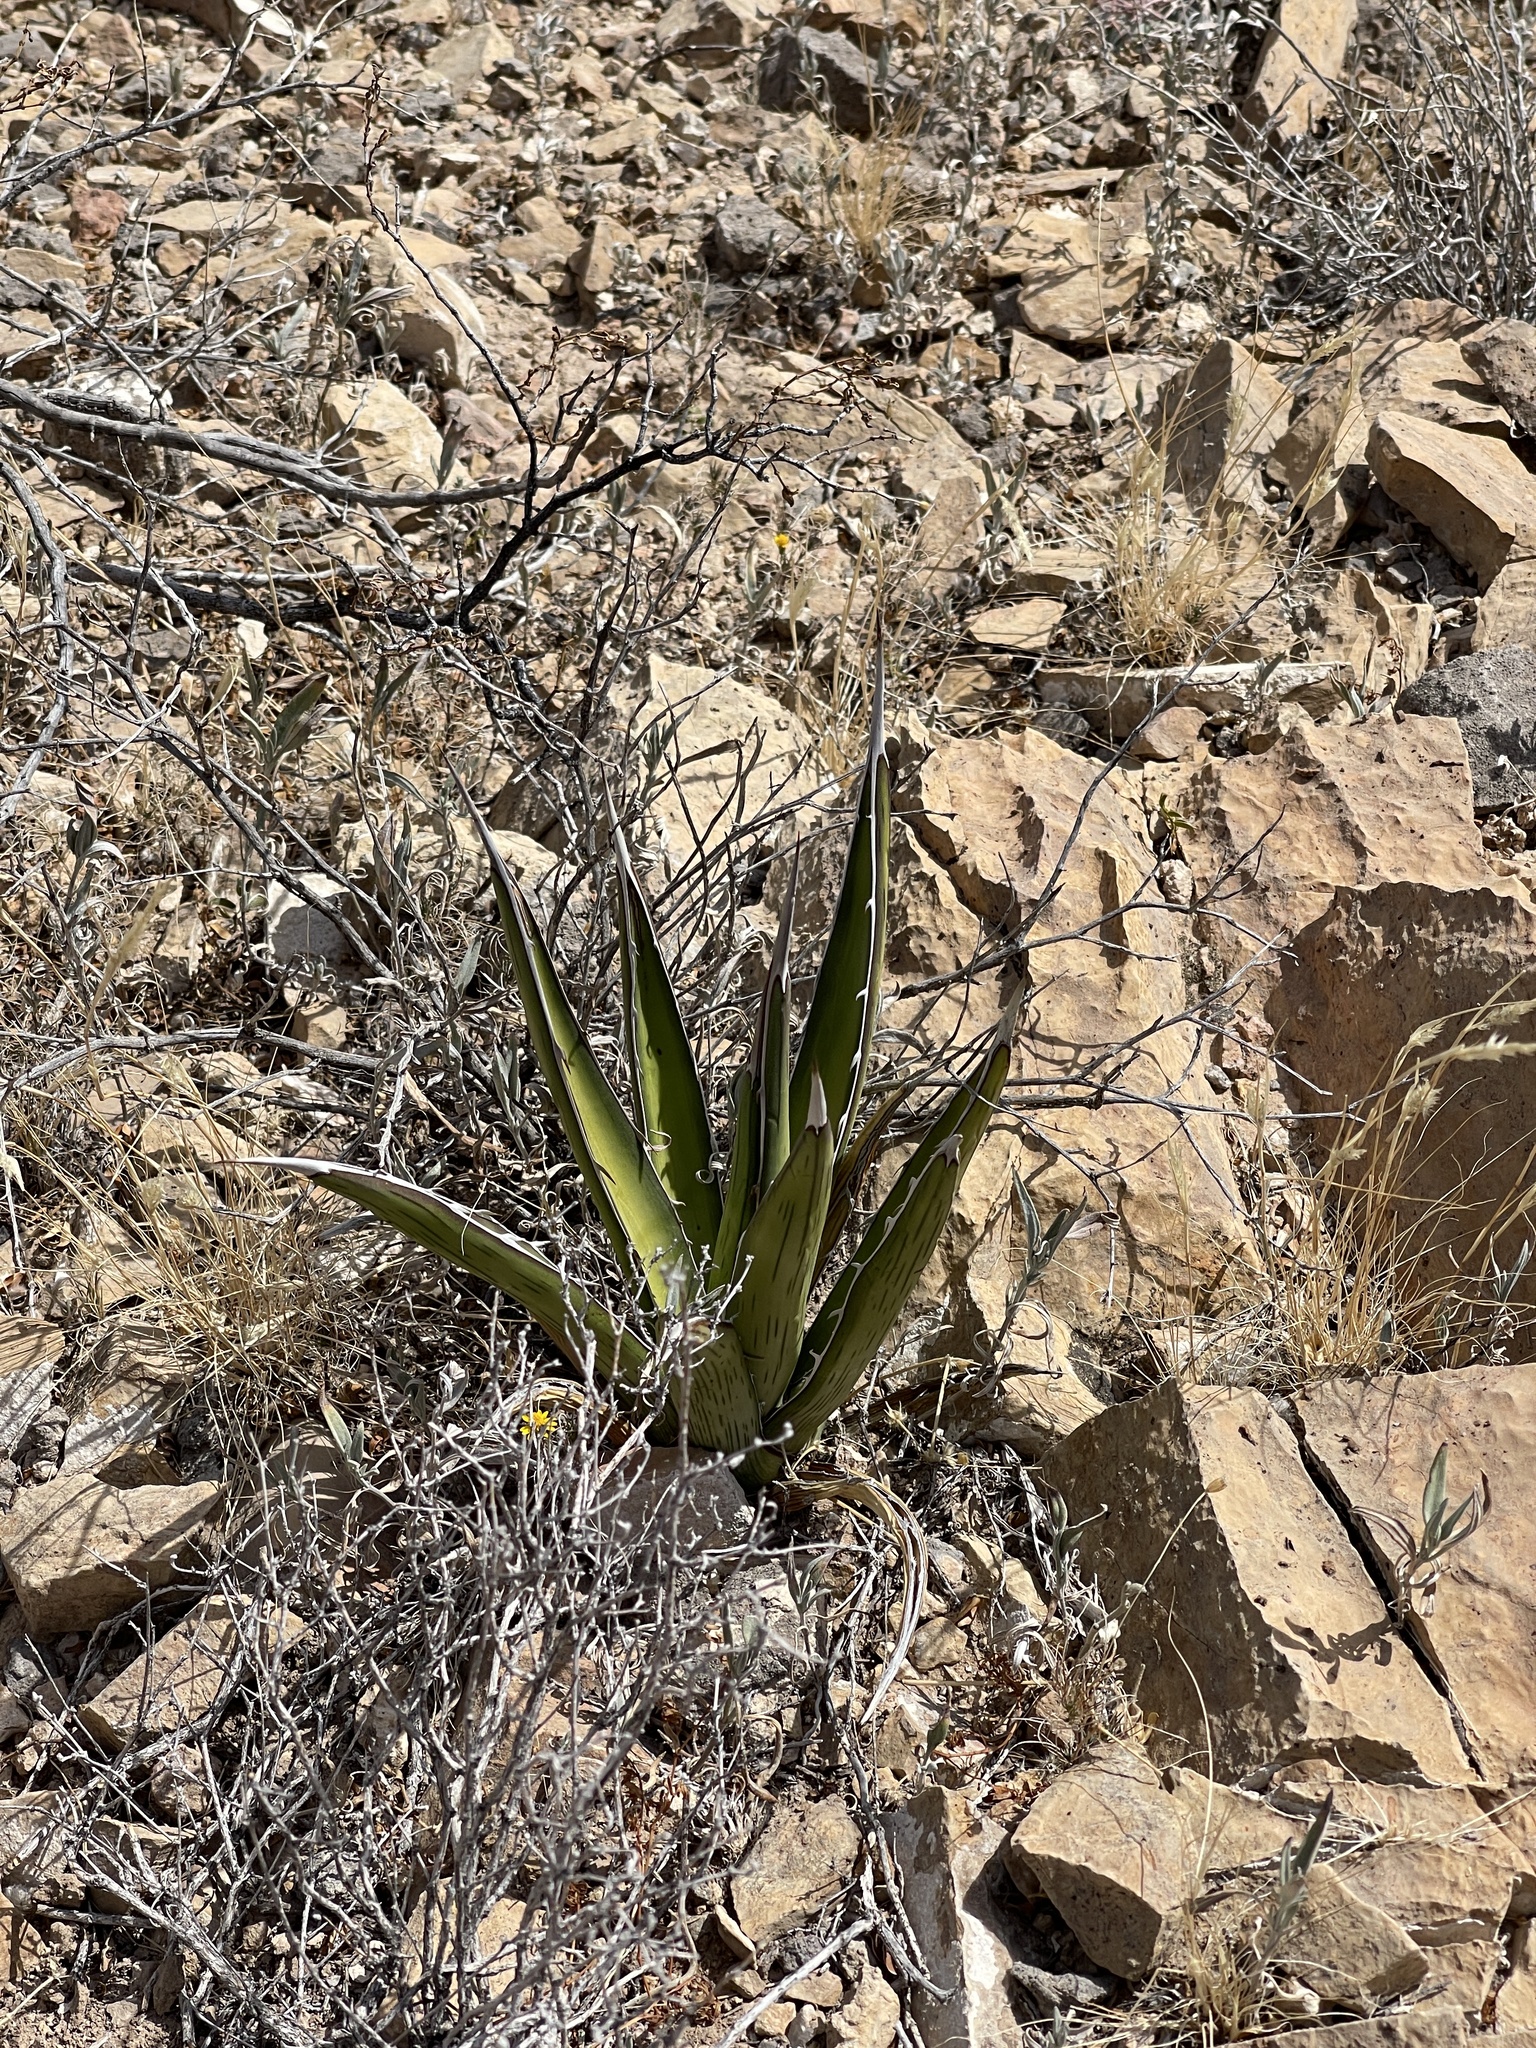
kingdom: Plantae
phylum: Tracheophyta
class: Liliopsida
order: Asparagales
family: Asparagaceae
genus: Agave
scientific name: Agave lechuguilla
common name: Lecheguilla agave
